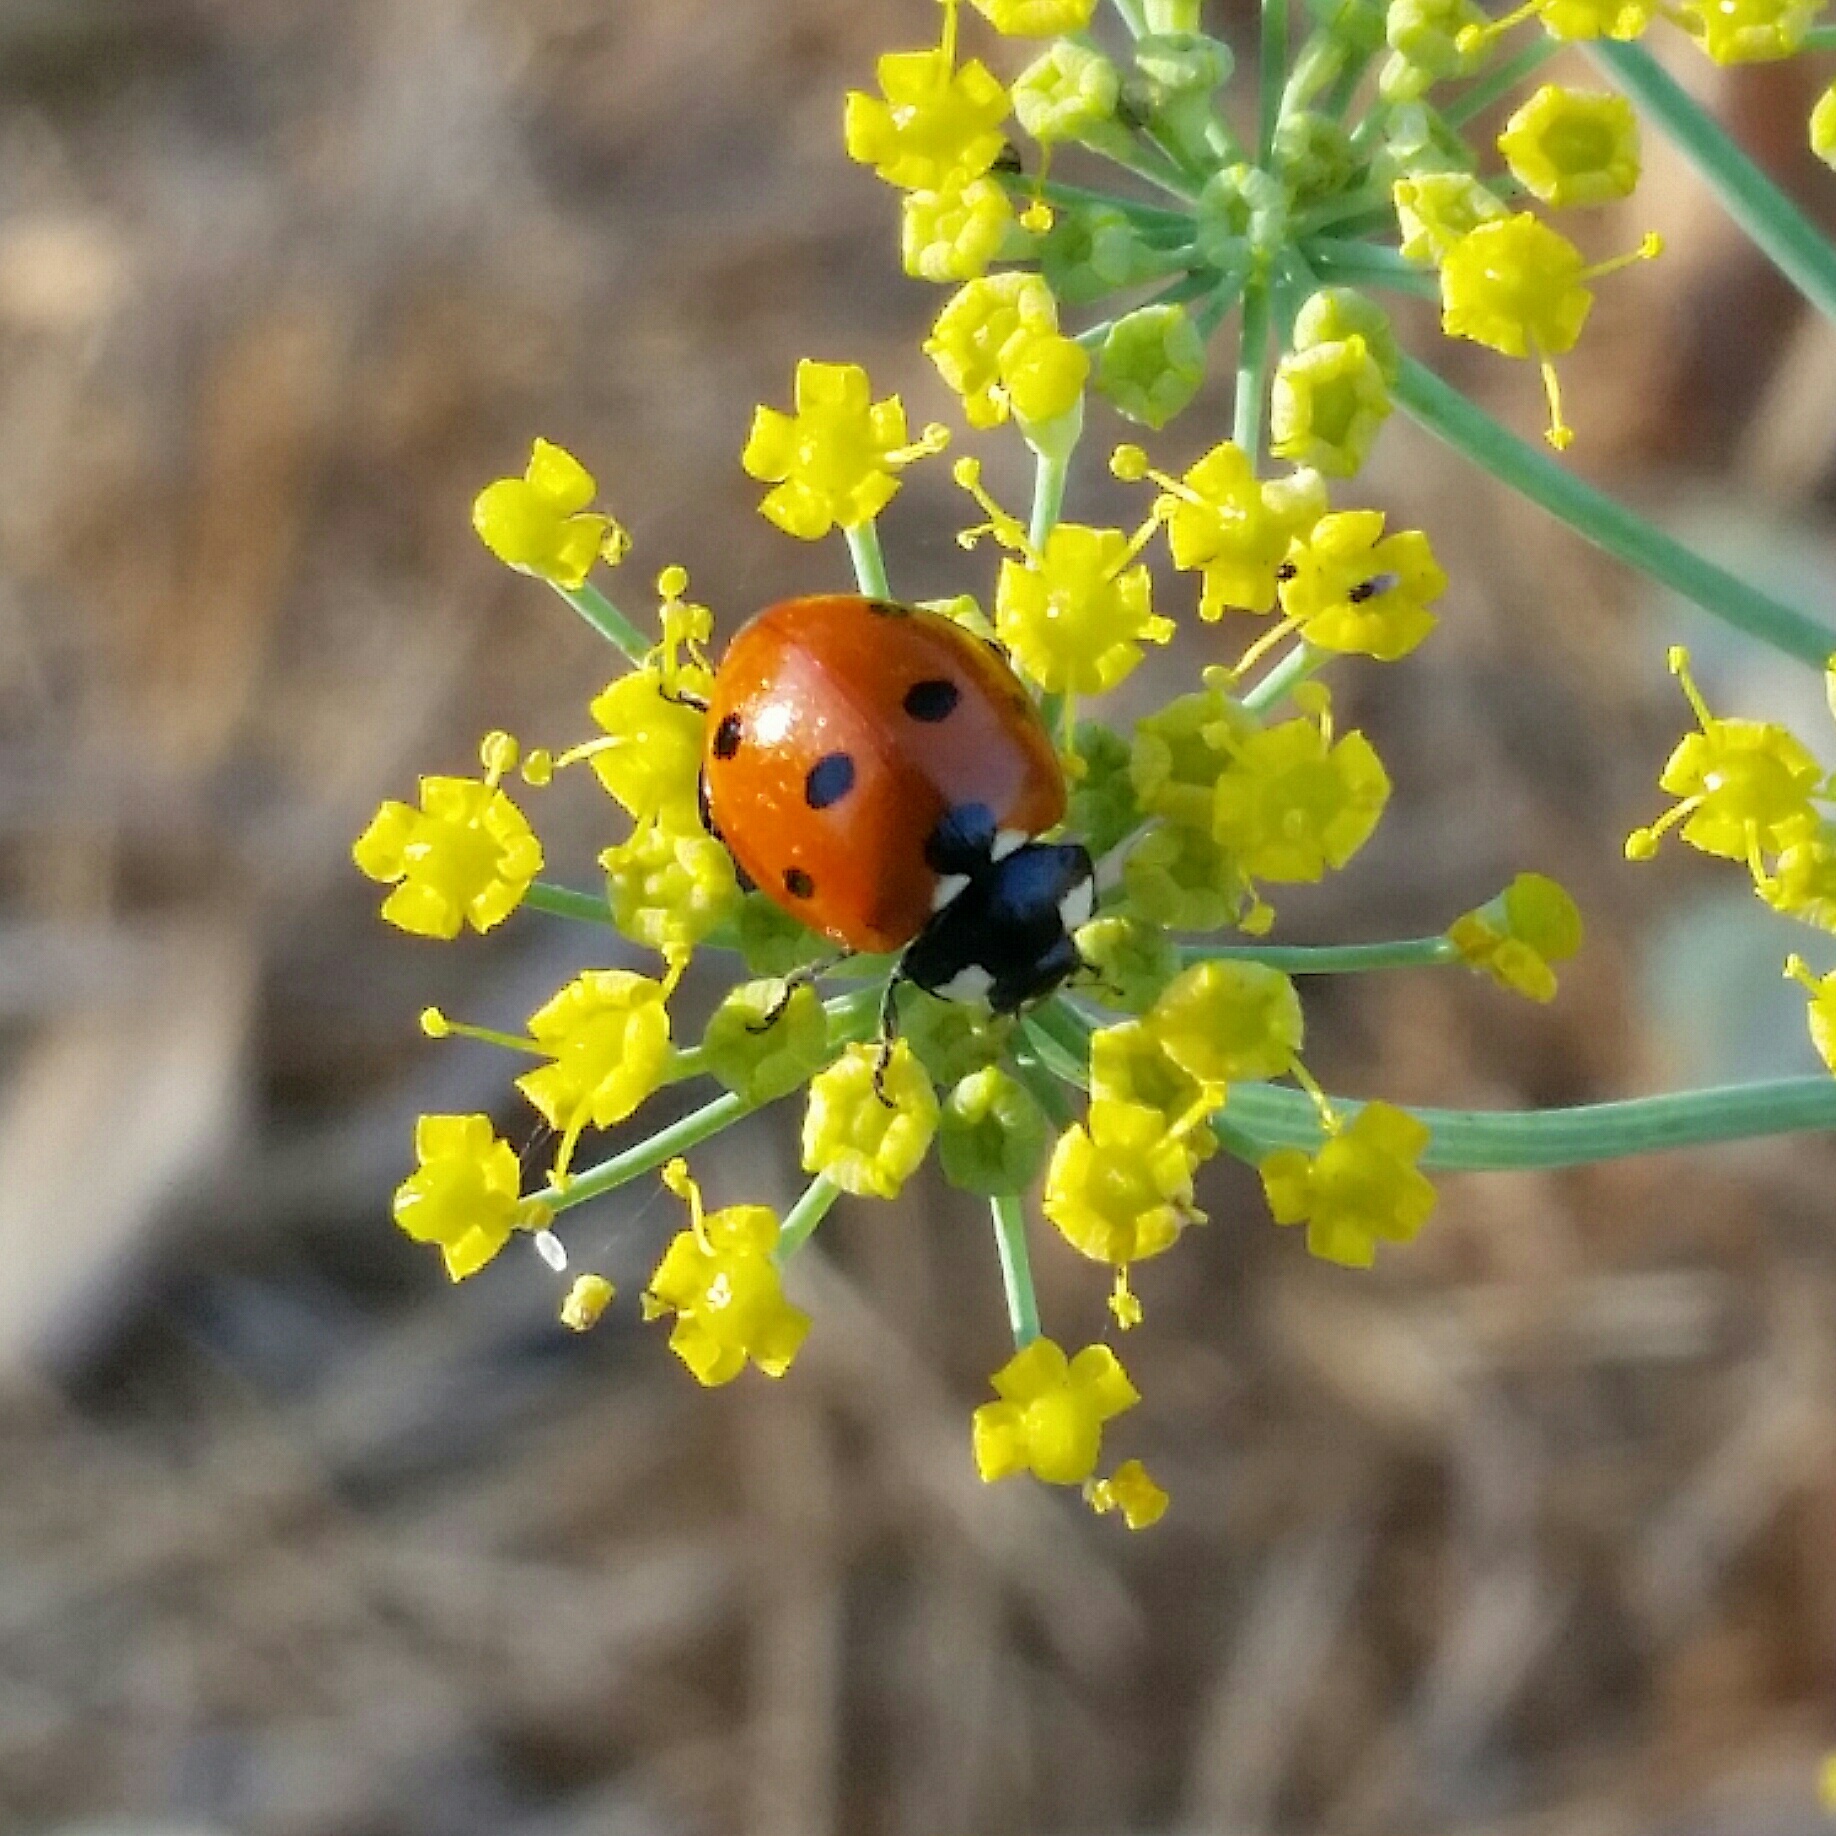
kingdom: Animalia
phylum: Arthropoda
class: Insecta
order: Coleoptera
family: Coccinellidae
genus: Coccinella
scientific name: Coccinella septempunctata
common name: Sevenspotted lady beetle
